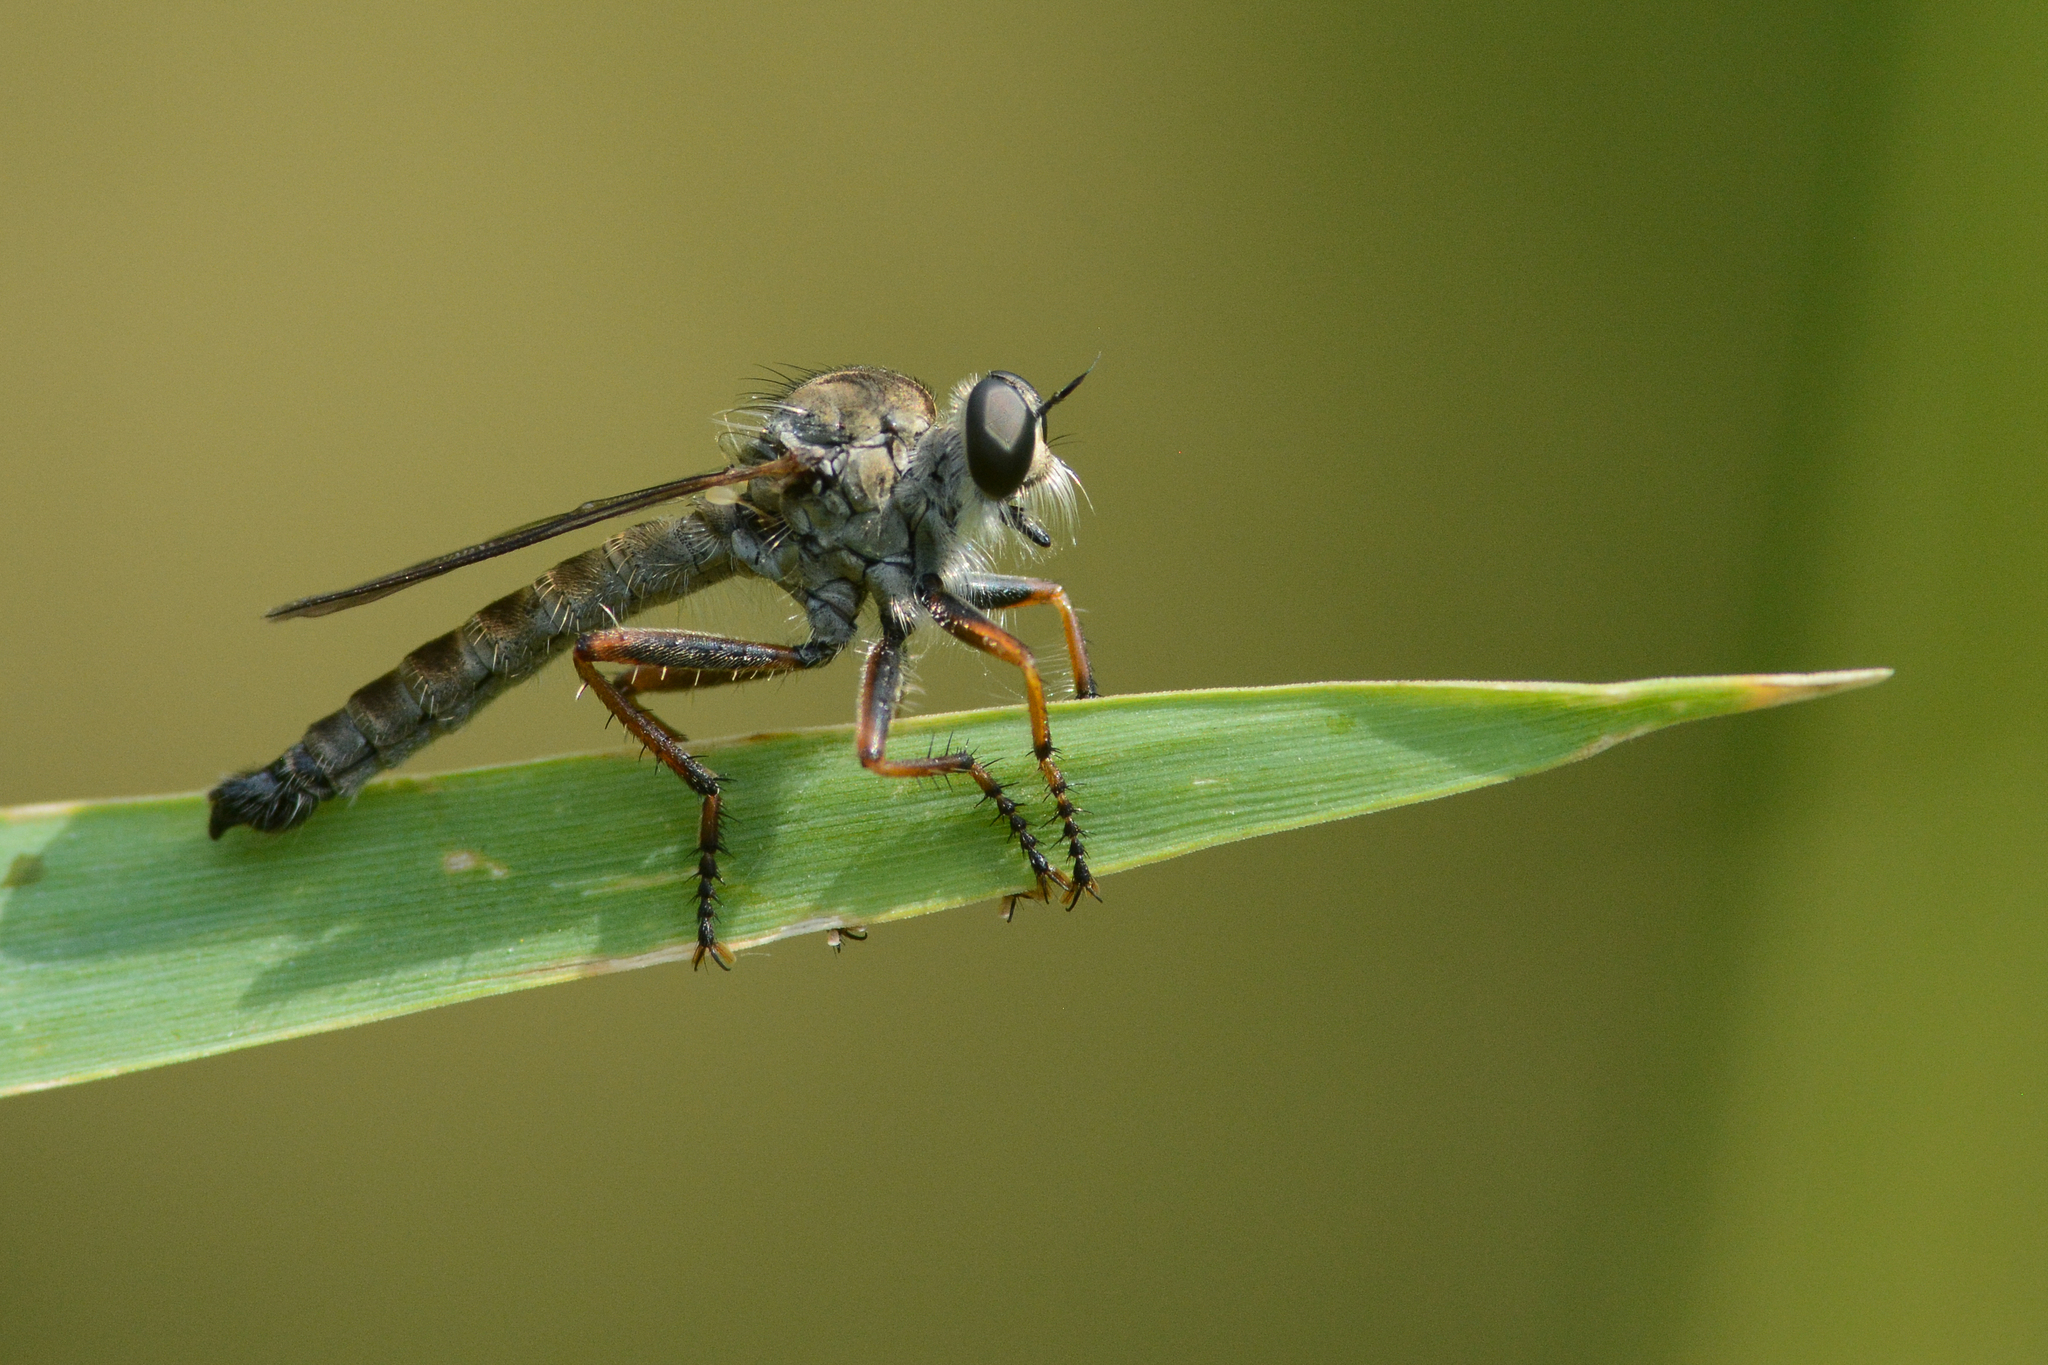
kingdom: Animalia
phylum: Arthropoda
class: Insecta
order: Diptera
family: Asilidae
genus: Neomochtherus
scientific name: Neomochtherus willistoni
